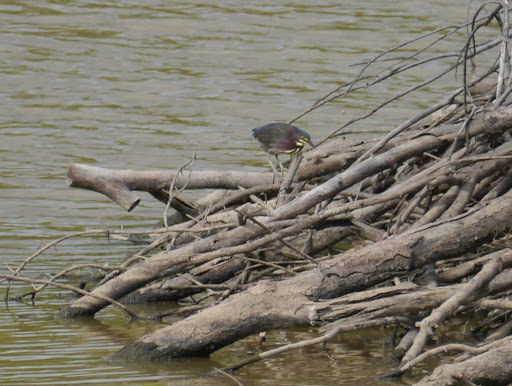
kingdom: Animalia
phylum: Chordata
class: Aves
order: Pelecaniformes
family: Ardeidae
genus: Butorides
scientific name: Butorides virescens
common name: Green heron
